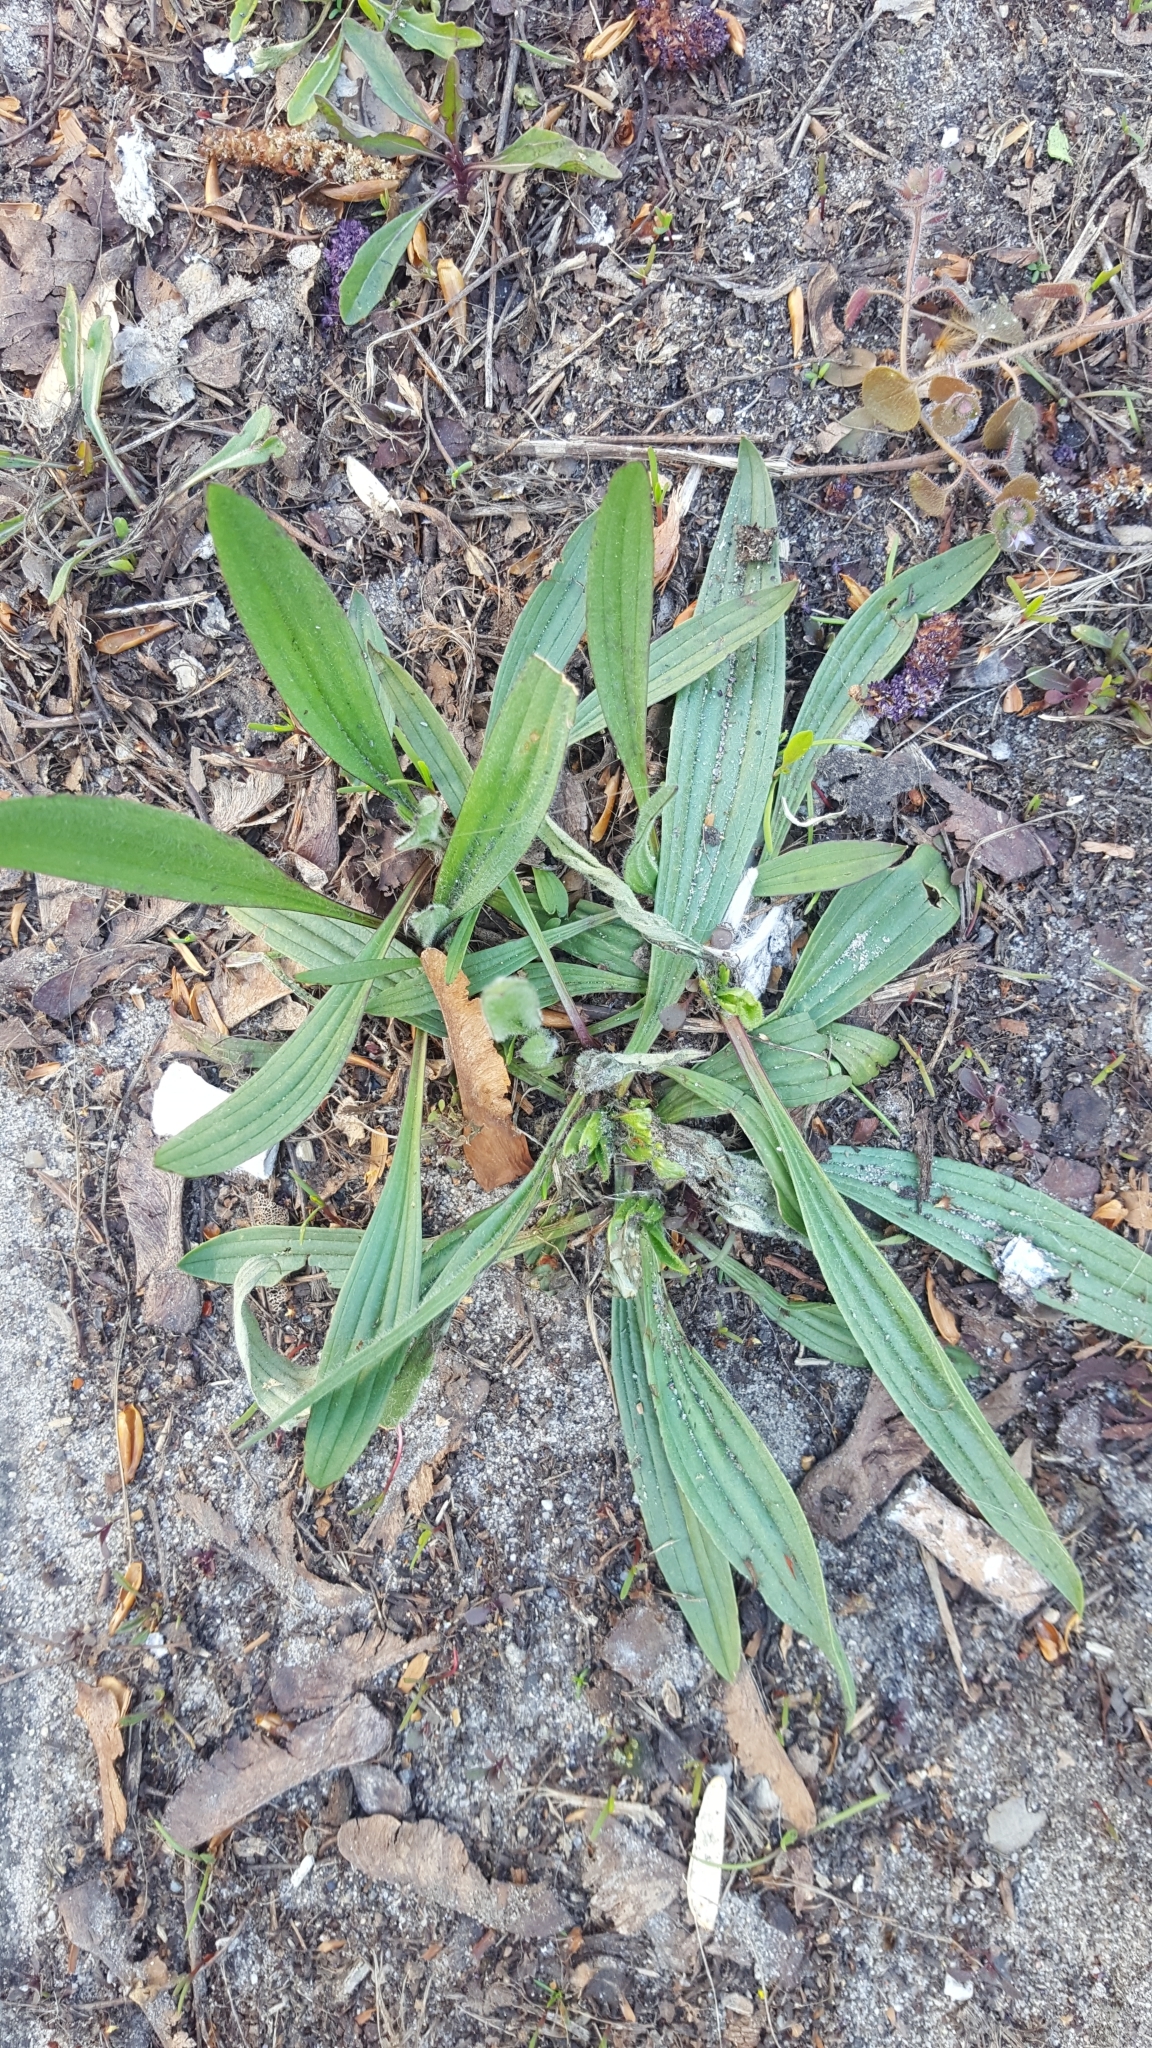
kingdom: Plantae
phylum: Tracheophyta
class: Magnoliopsida
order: Lamiales
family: Plantaginaceae
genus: Plantago
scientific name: Plantago lanceolata
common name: Ribwort plantain
